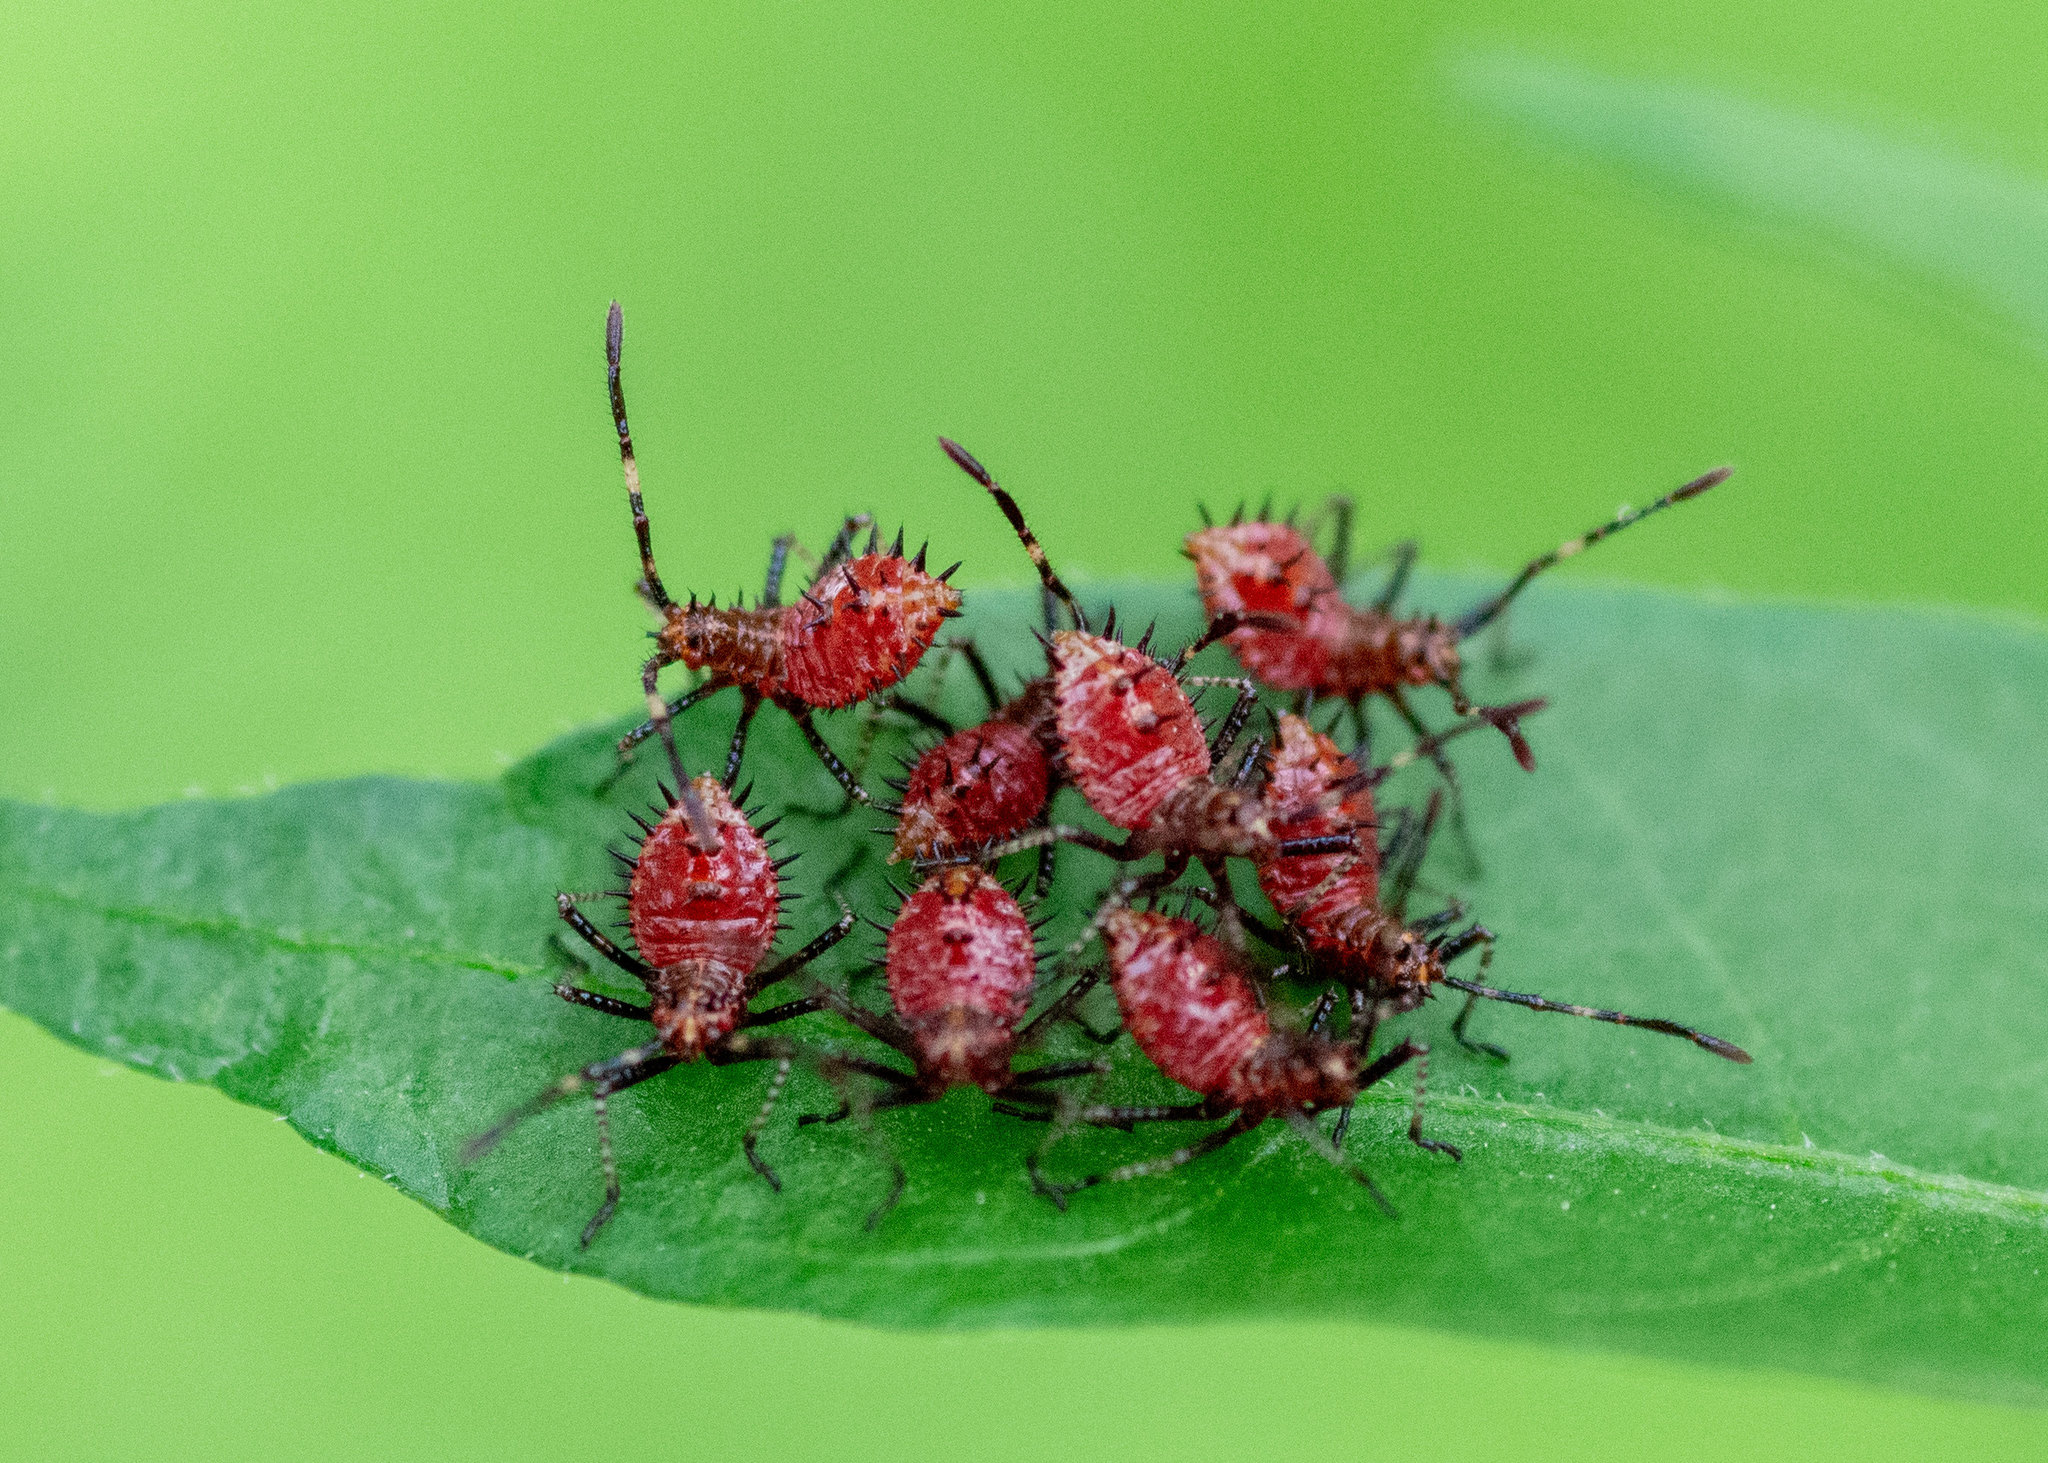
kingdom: Animalia
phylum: Arthropoda
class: Insecta
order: Hemiptera
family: Coreidae
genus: Euthochtha
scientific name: Euthochtha galeator
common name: Helmeted squash bug
